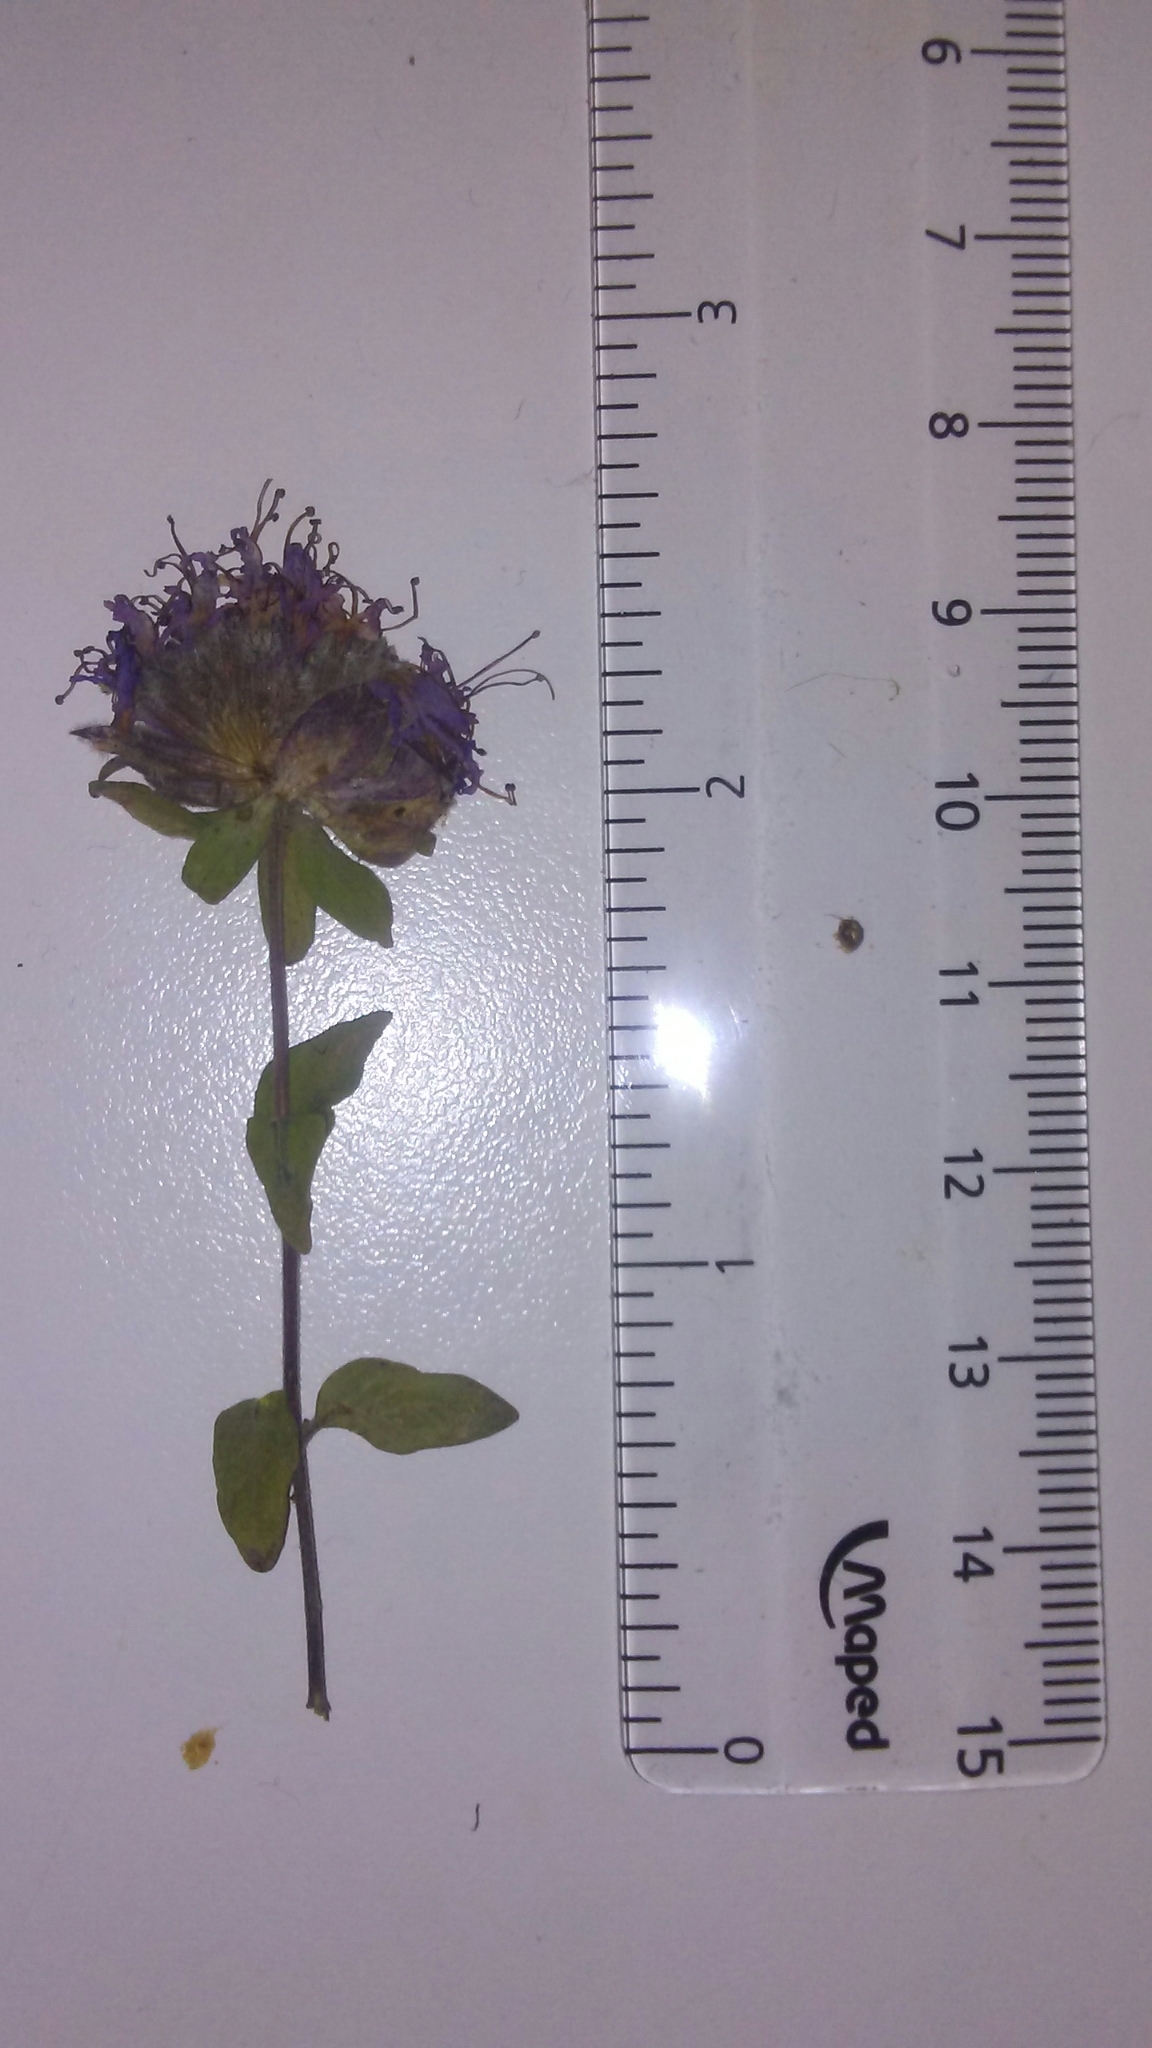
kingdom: Plantae
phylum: Tracheophyta
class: Magnoliopsida
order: Lamiales
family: Lamiaceae
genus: Monardella
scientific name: Monardella odoratissima
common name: Pacific monardella
